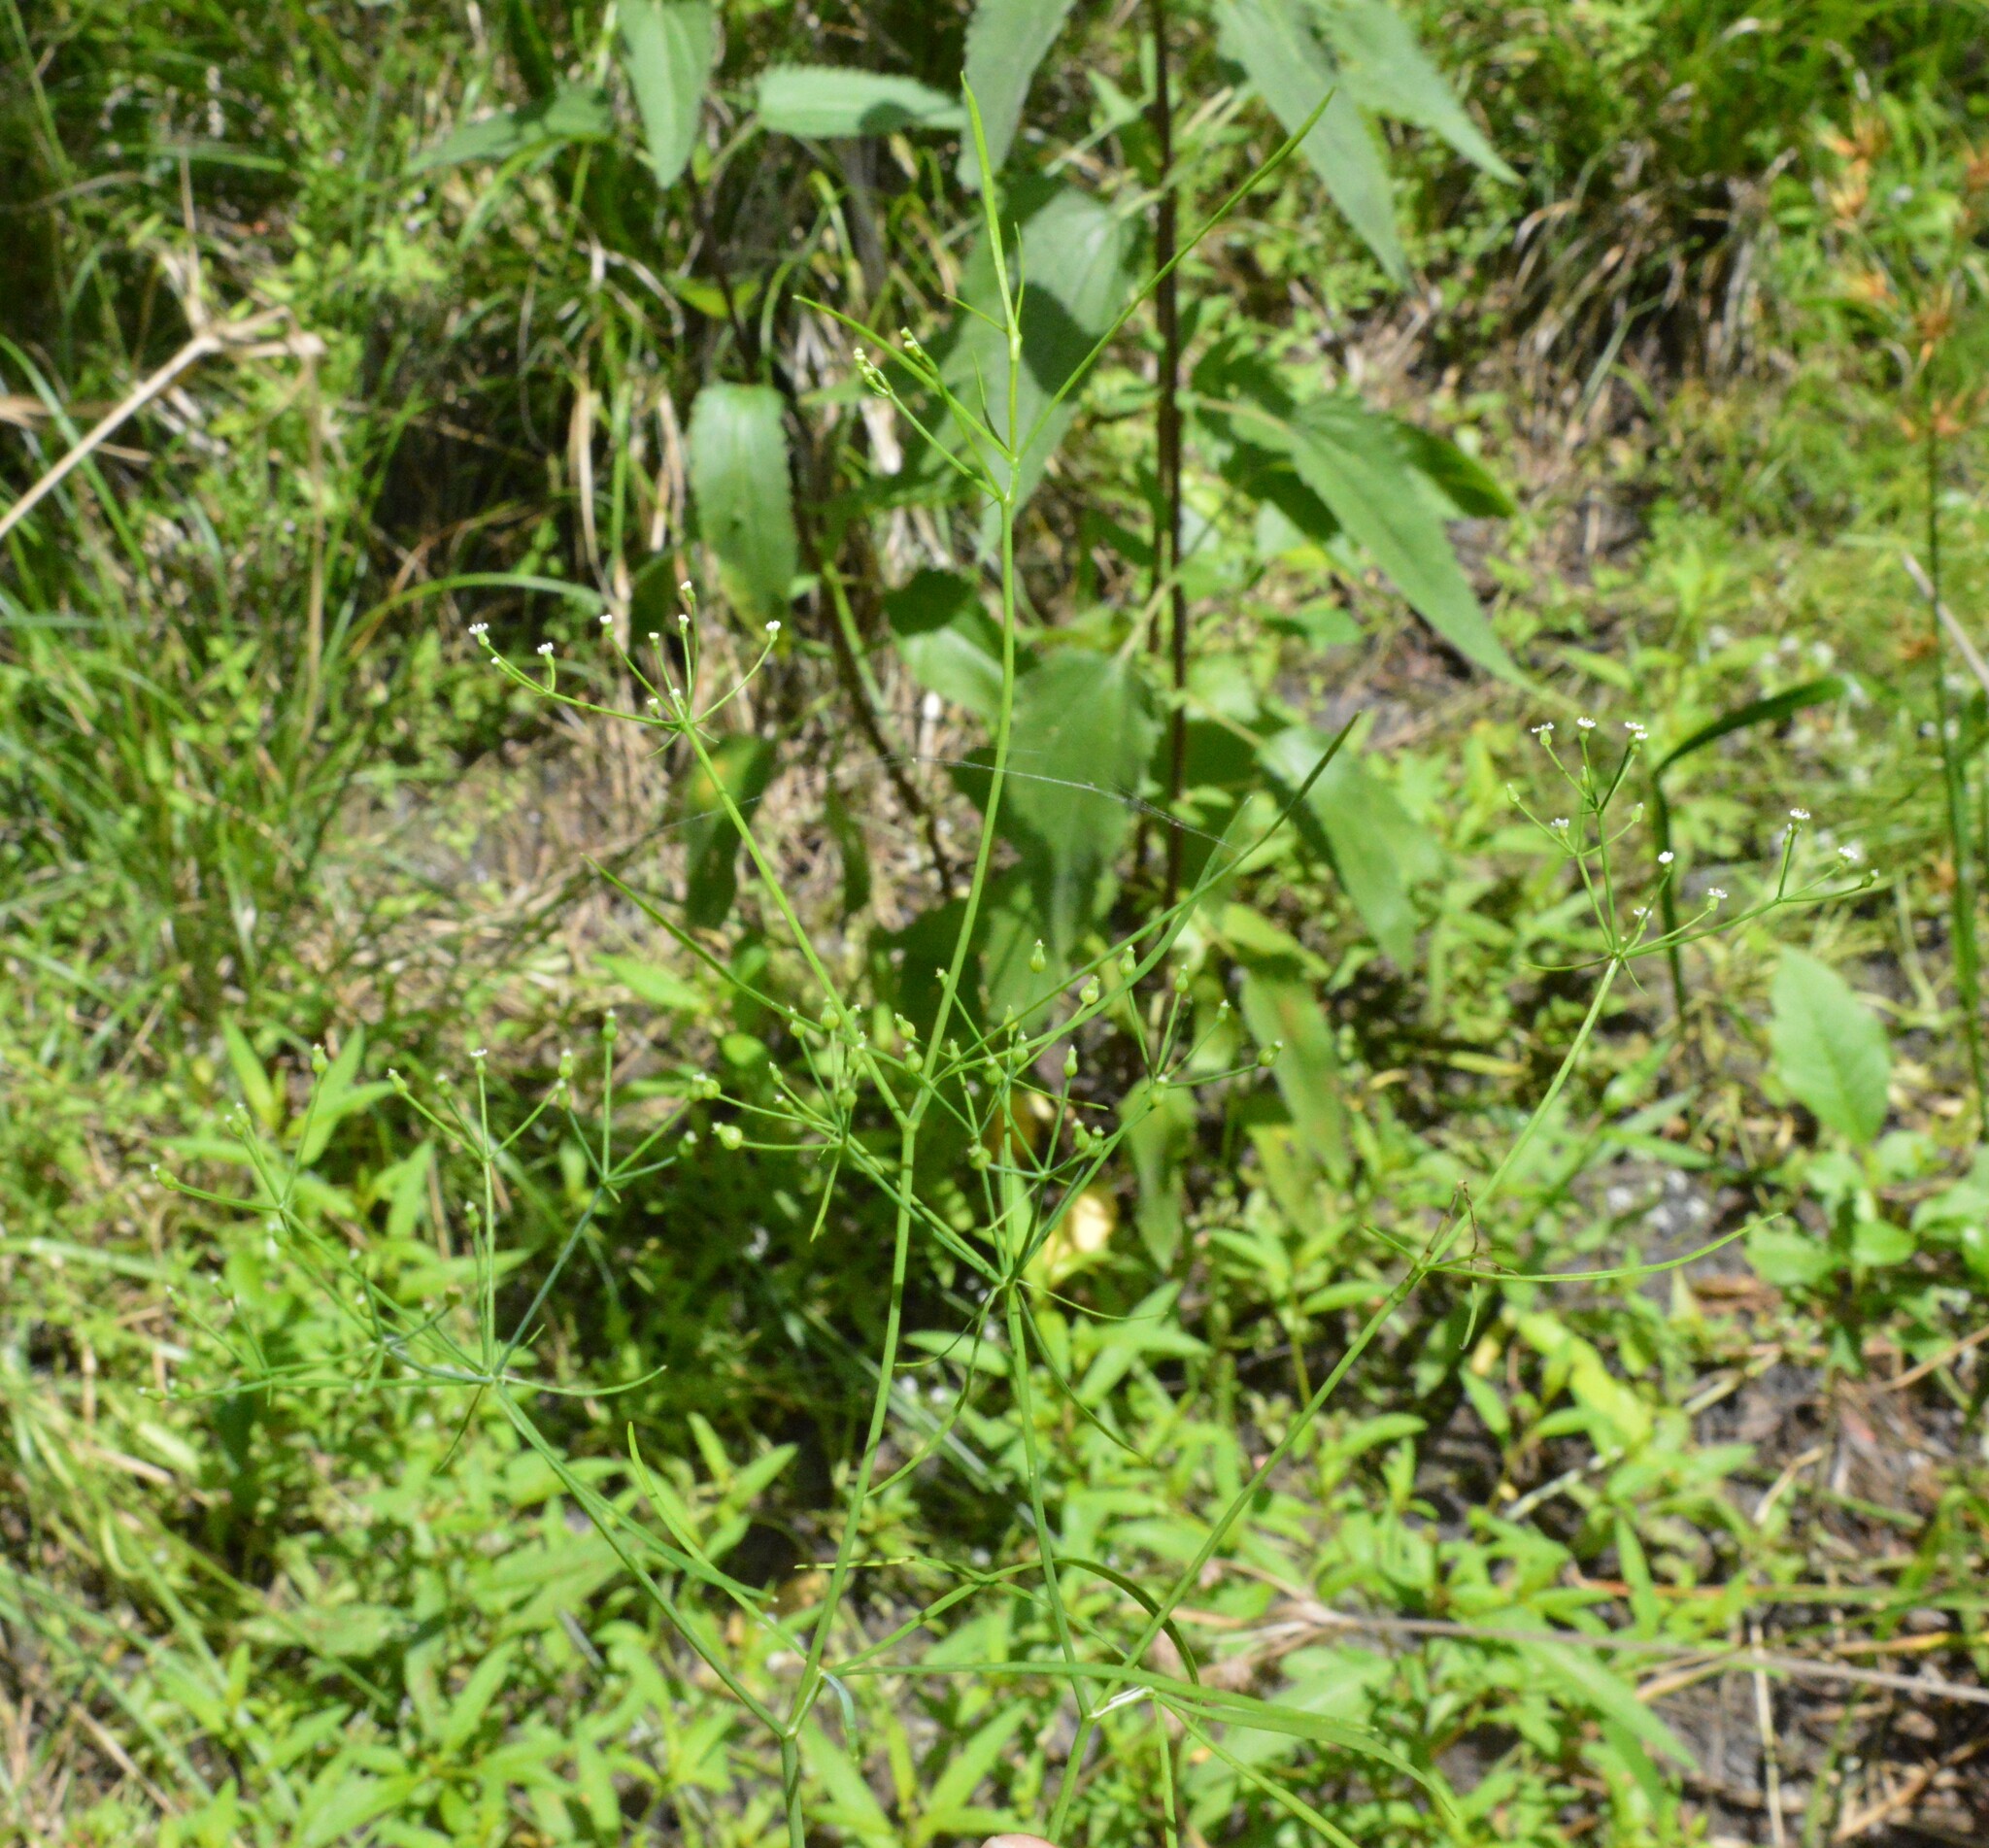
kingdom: Plantae
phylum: Tracheophyta
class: Magnoliopsida
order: Apiales
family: Apiaceae
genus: Cynosciadium
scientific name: Cynosciadium digitatum
